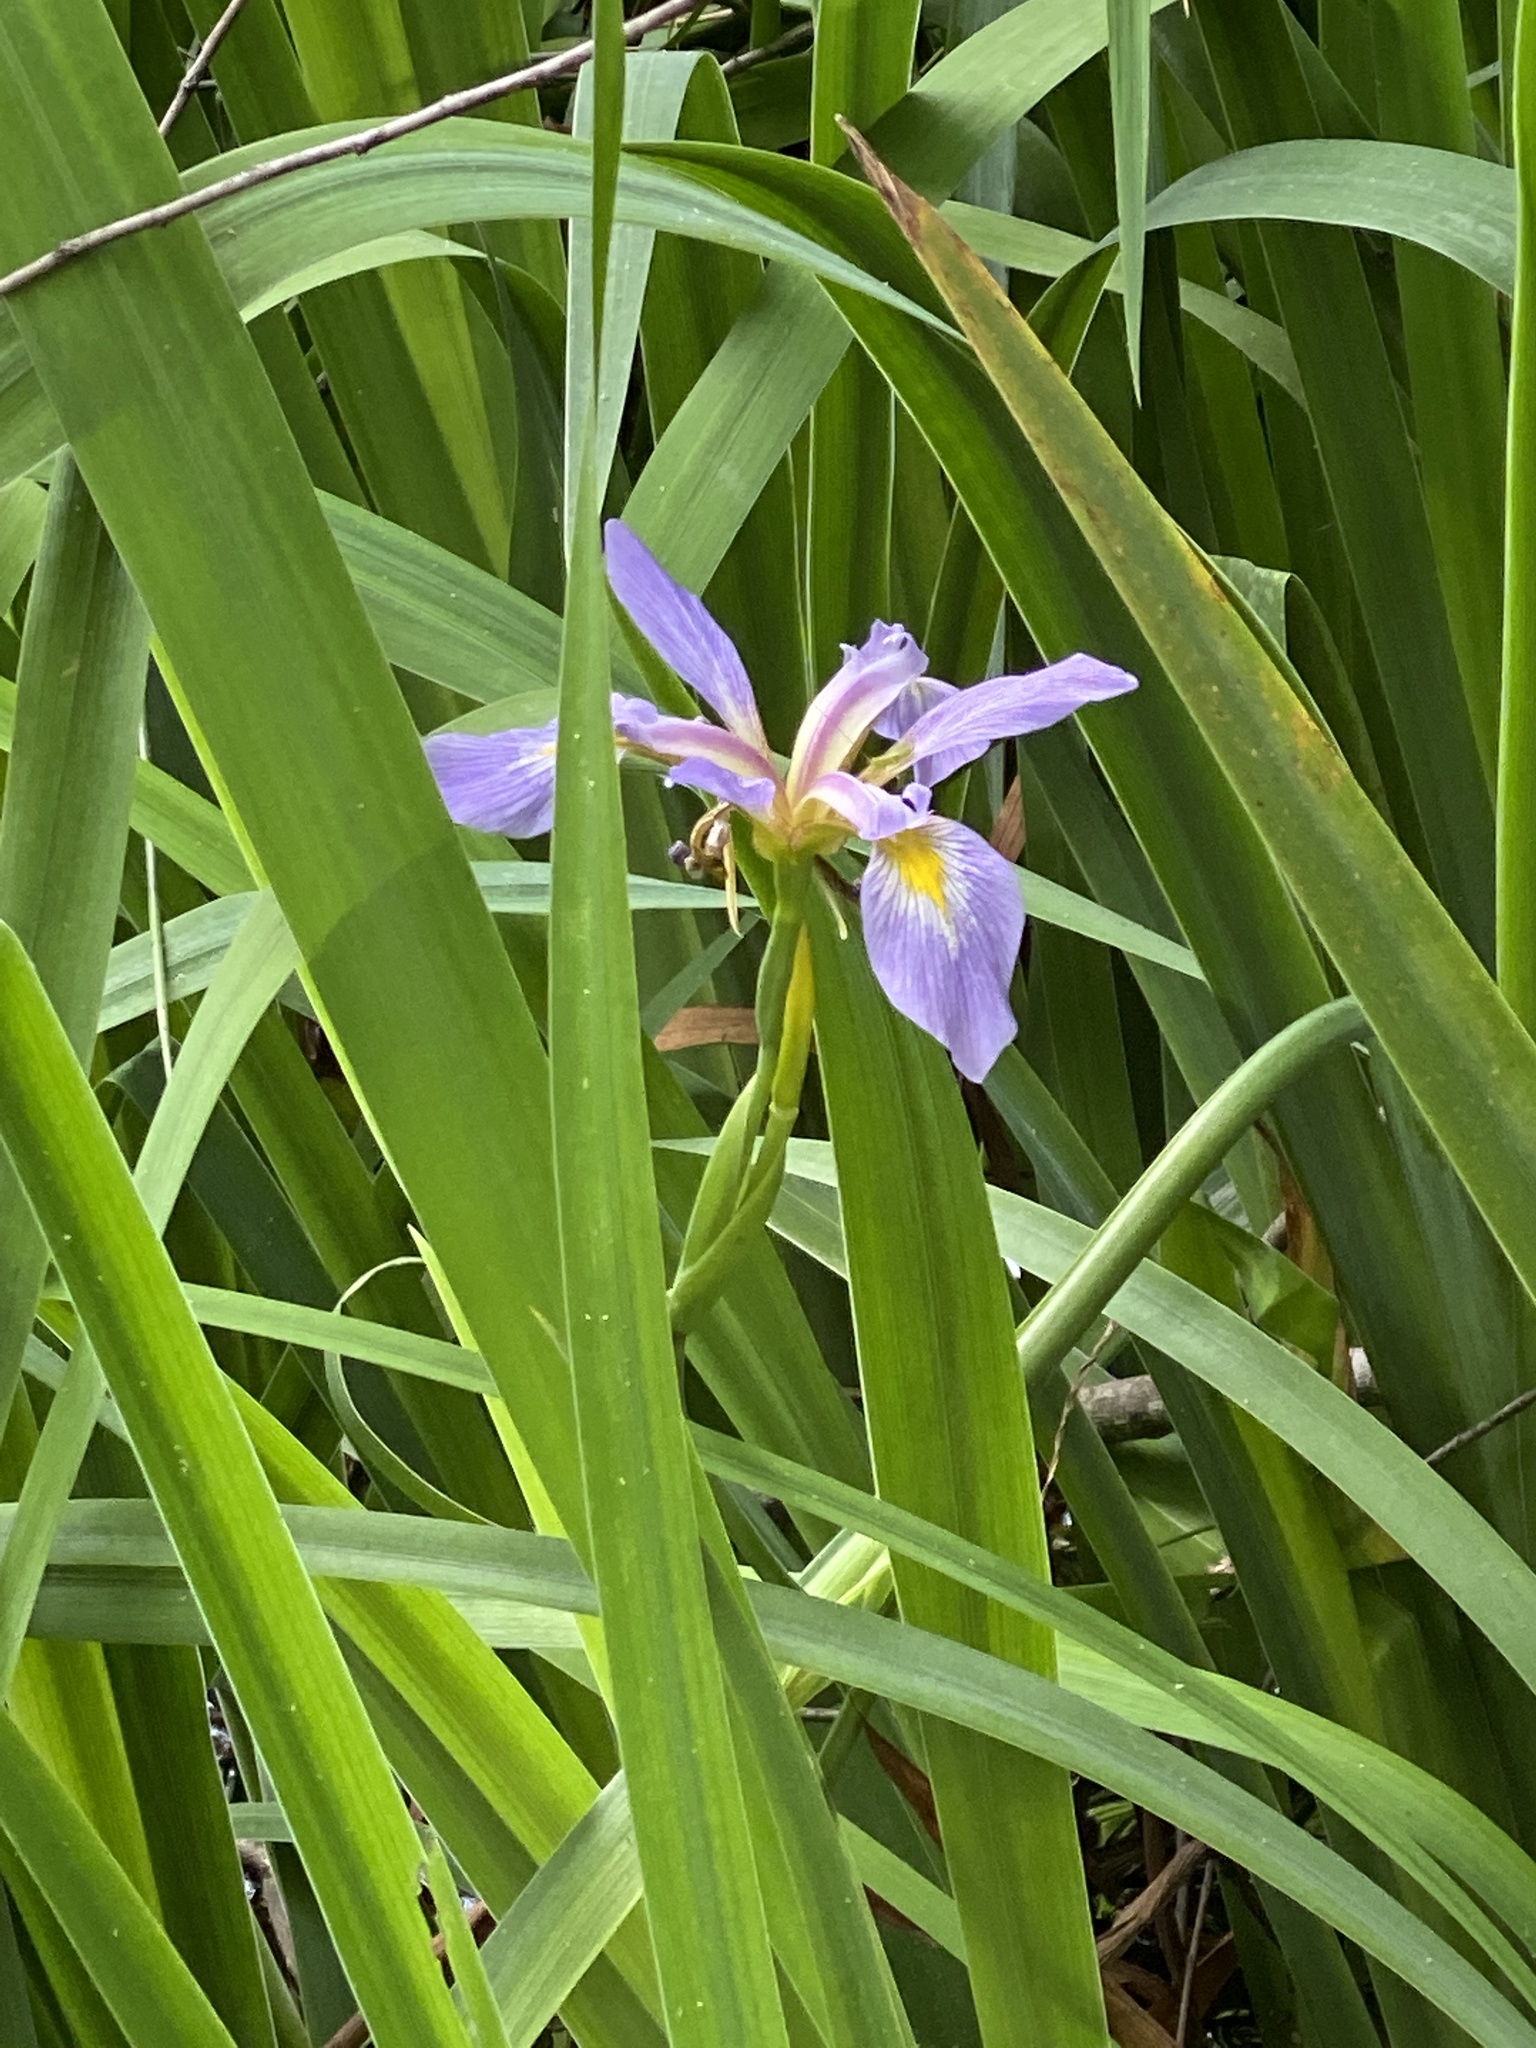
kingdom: Plantae
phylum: Tracheophyta
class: Liliopsida
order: Asparagales
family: Iridaceae
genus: Iris
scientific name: Iris virginica
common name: Southern blue flag
